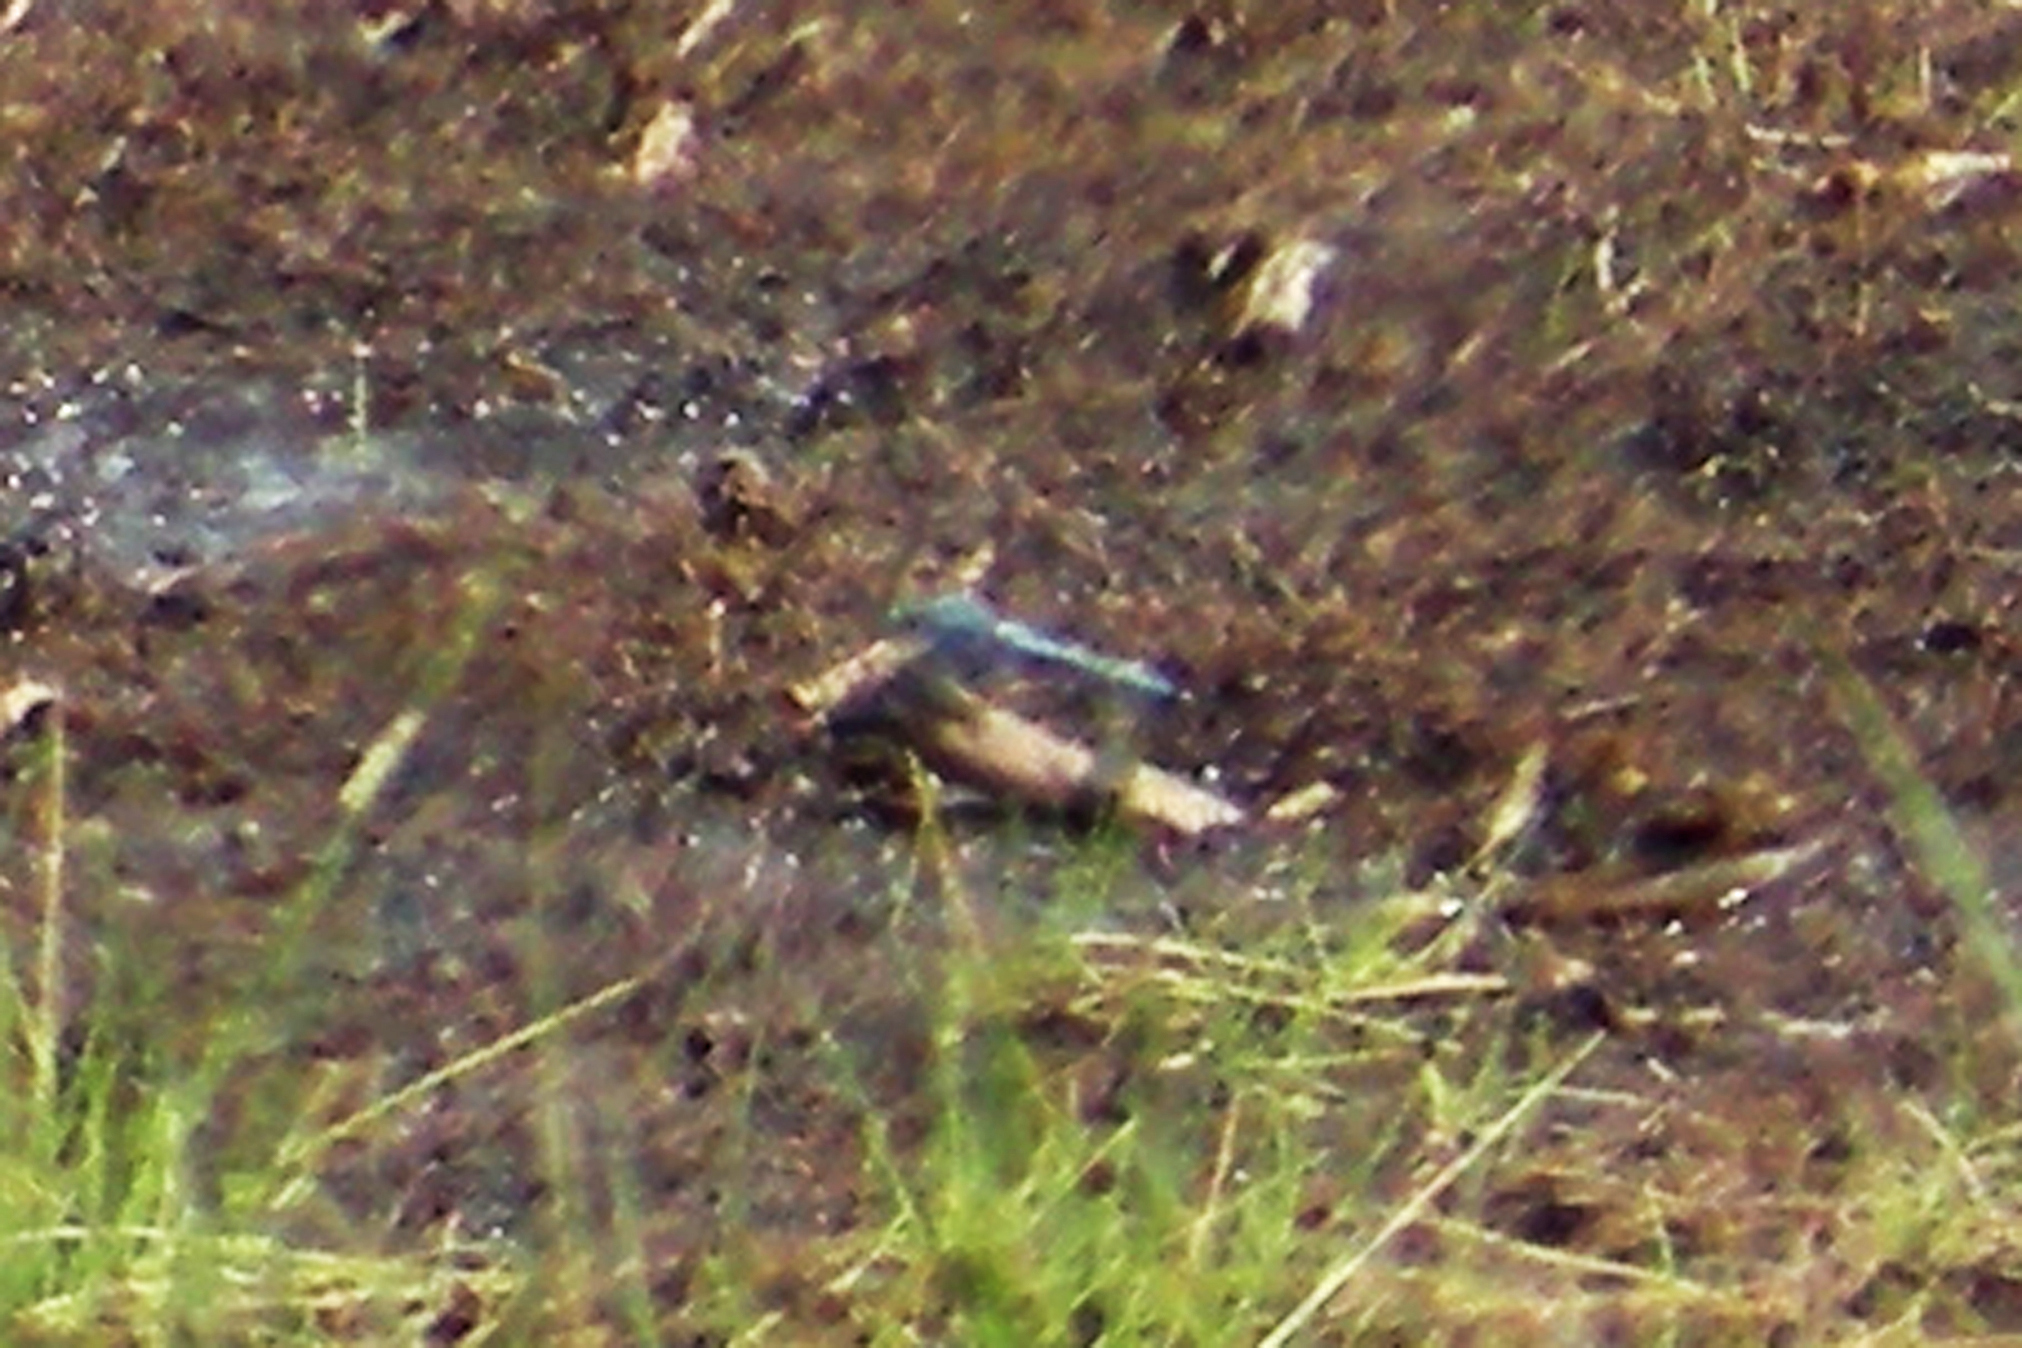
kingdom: Animalia
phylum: Arthropoda
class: Insecta
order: Odonata
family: Libellulidae
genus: Erythemis
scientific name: Erythemis simplicicollis
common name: Eastern pondhawk
